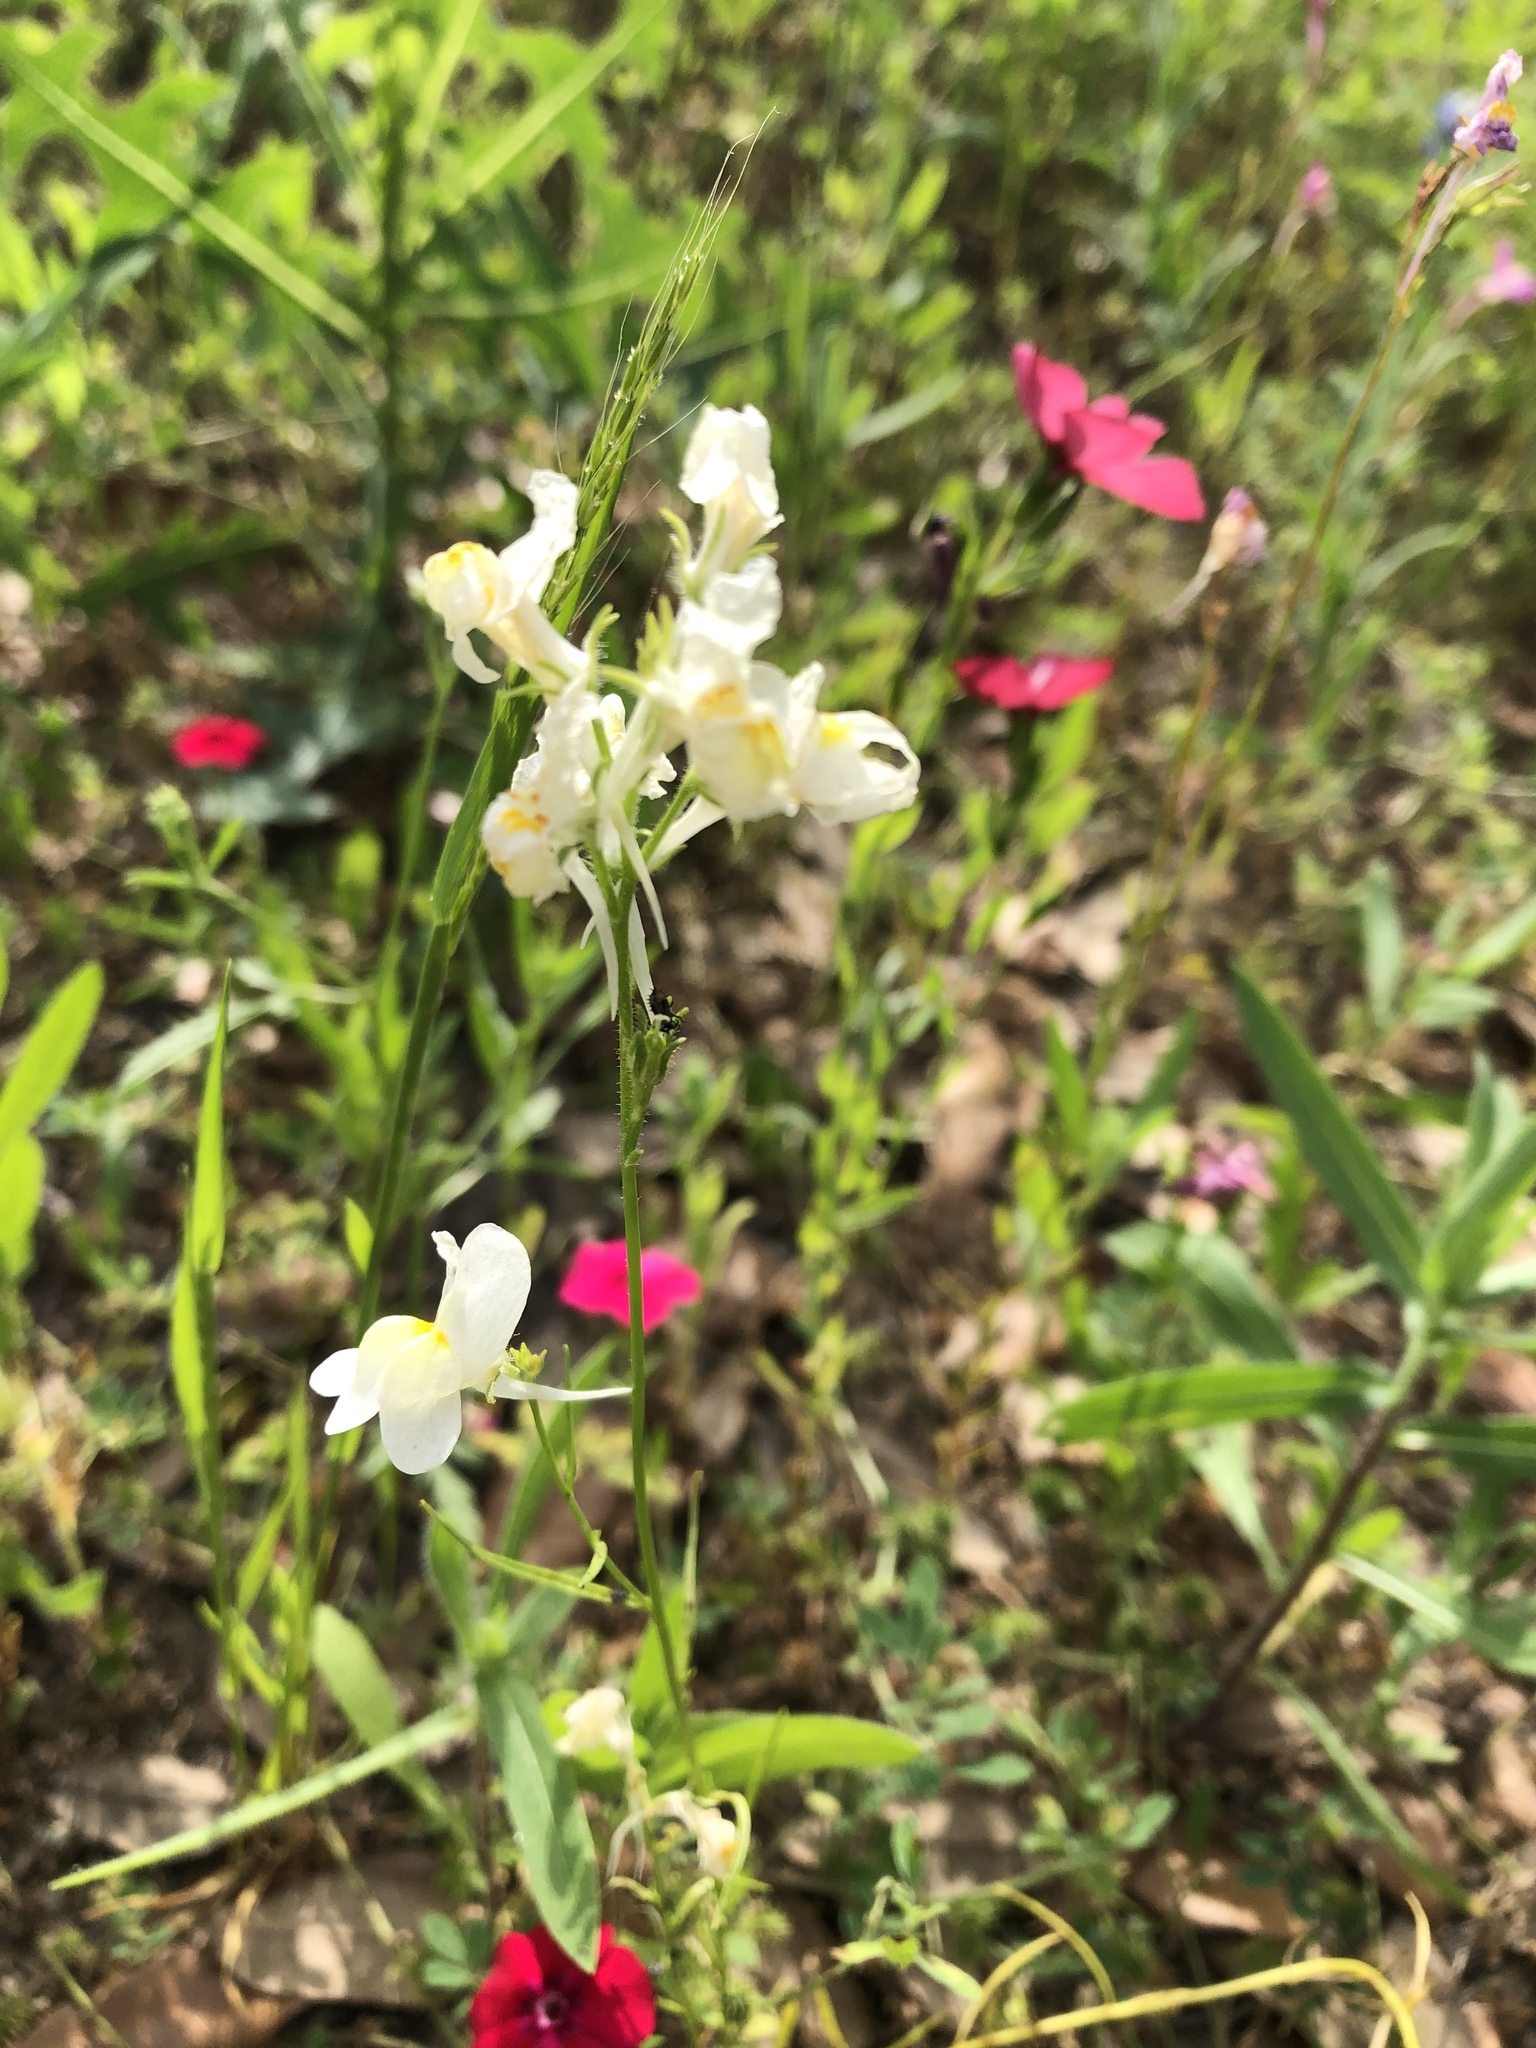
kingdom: Plantae
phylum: Tracheophyta
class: Magnoliopsida
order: Lamiales
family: Plantaginaceae
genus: Linaria
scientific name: Linaria maroccana
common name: Moroccan toadflax
